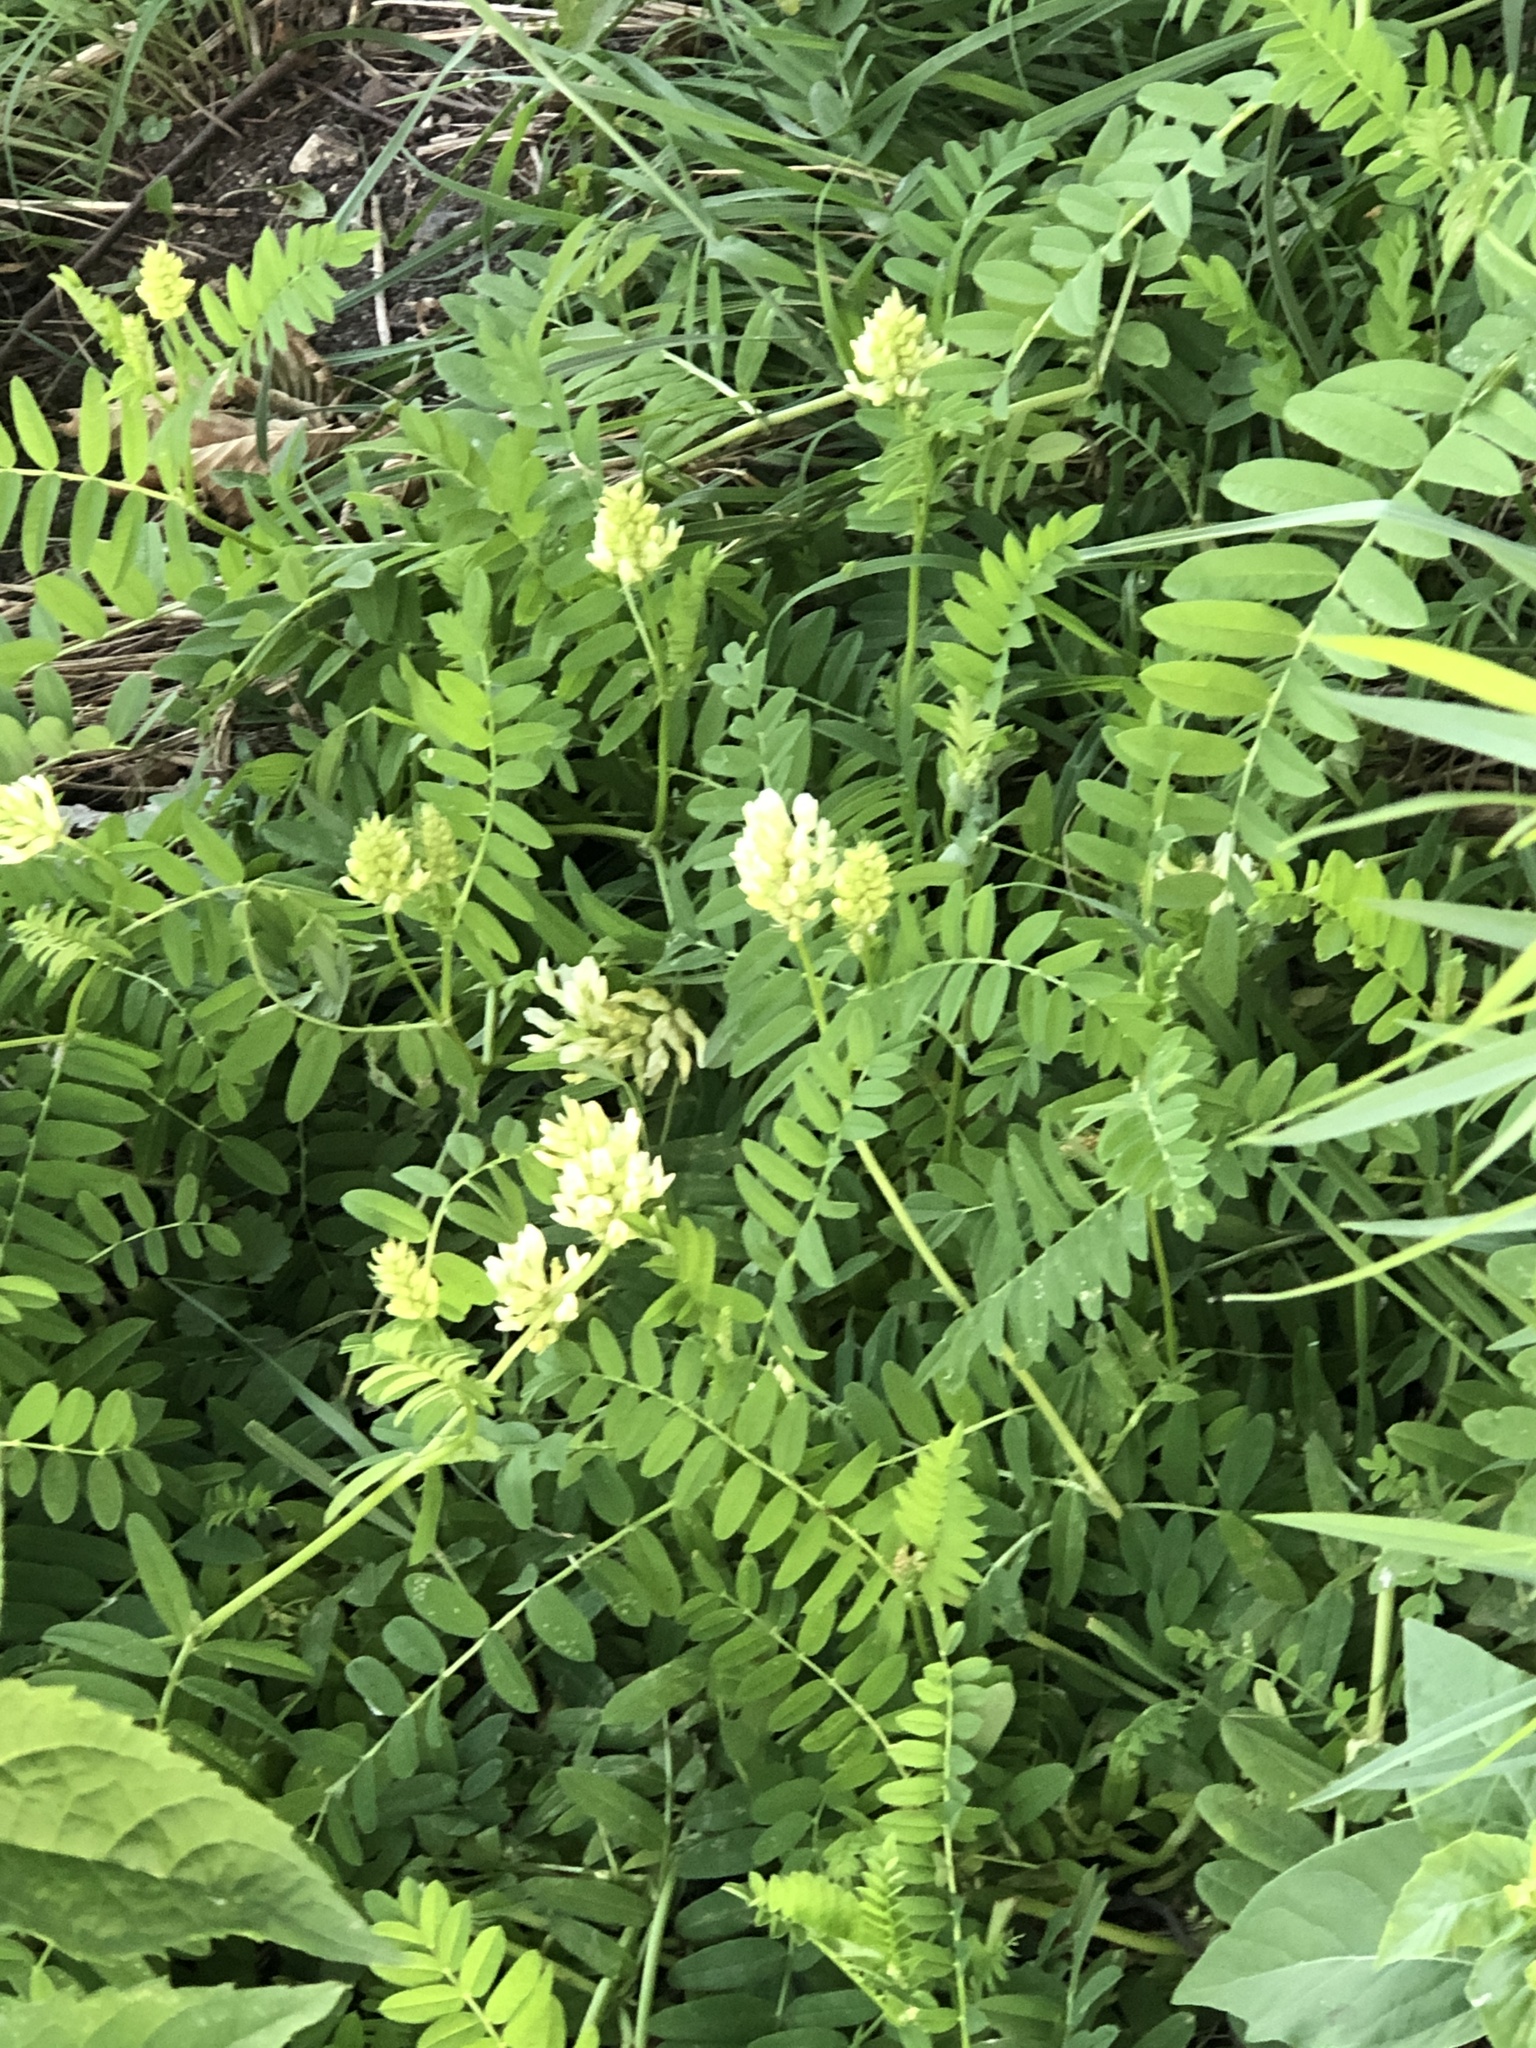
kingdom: Plantae
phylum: Tracheophyta
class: Magnoliopsida
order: Fabales
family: Fabaceae
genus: Astragalus
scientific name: Astragalus cicer
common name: Chick-pea milk-vetch
